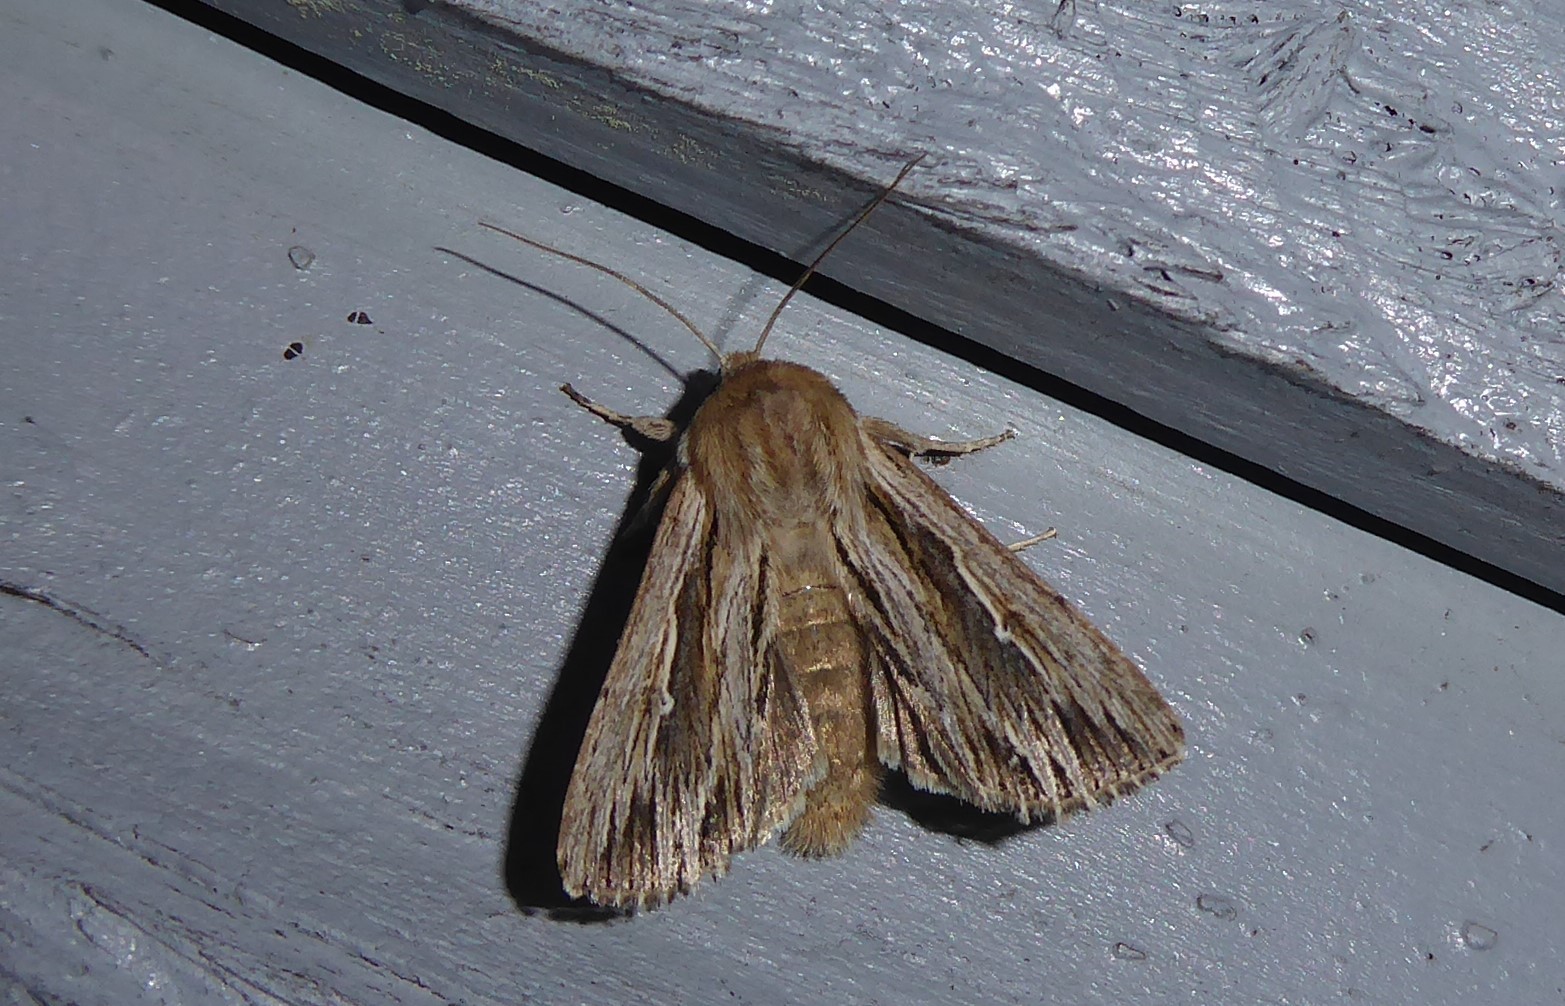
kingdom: Animalia
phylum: Arthropoda
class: Insecta
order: Lepidoptera
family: Noctuidae
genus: Persectania
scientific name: Persectania aversa
